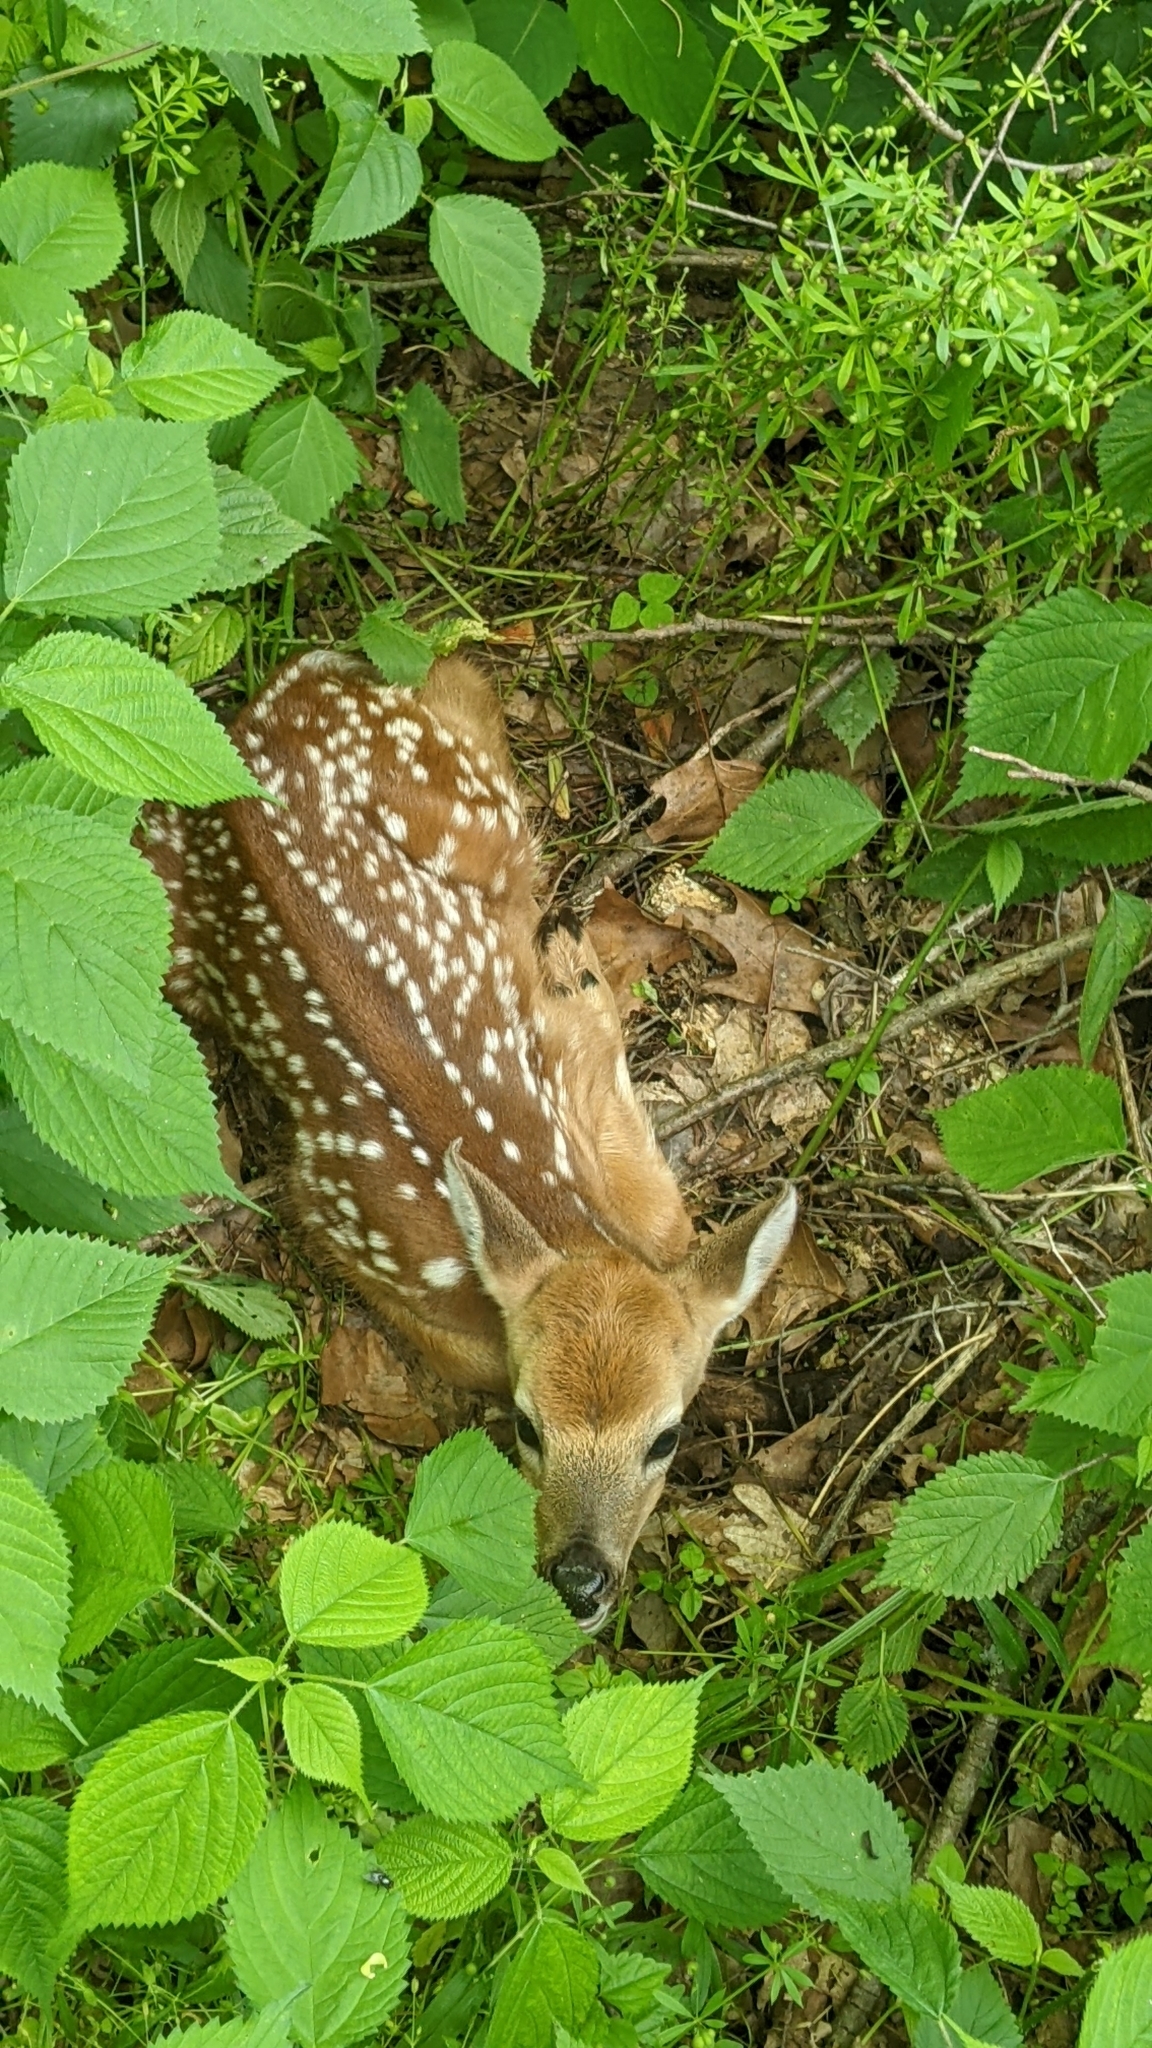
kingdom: Animalia
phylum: Chordata
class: Mammalia
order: Artiodactyla
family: Cervidae
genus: Odocoileus
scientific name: Odocoileus virginianus
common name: White-tailed deer
